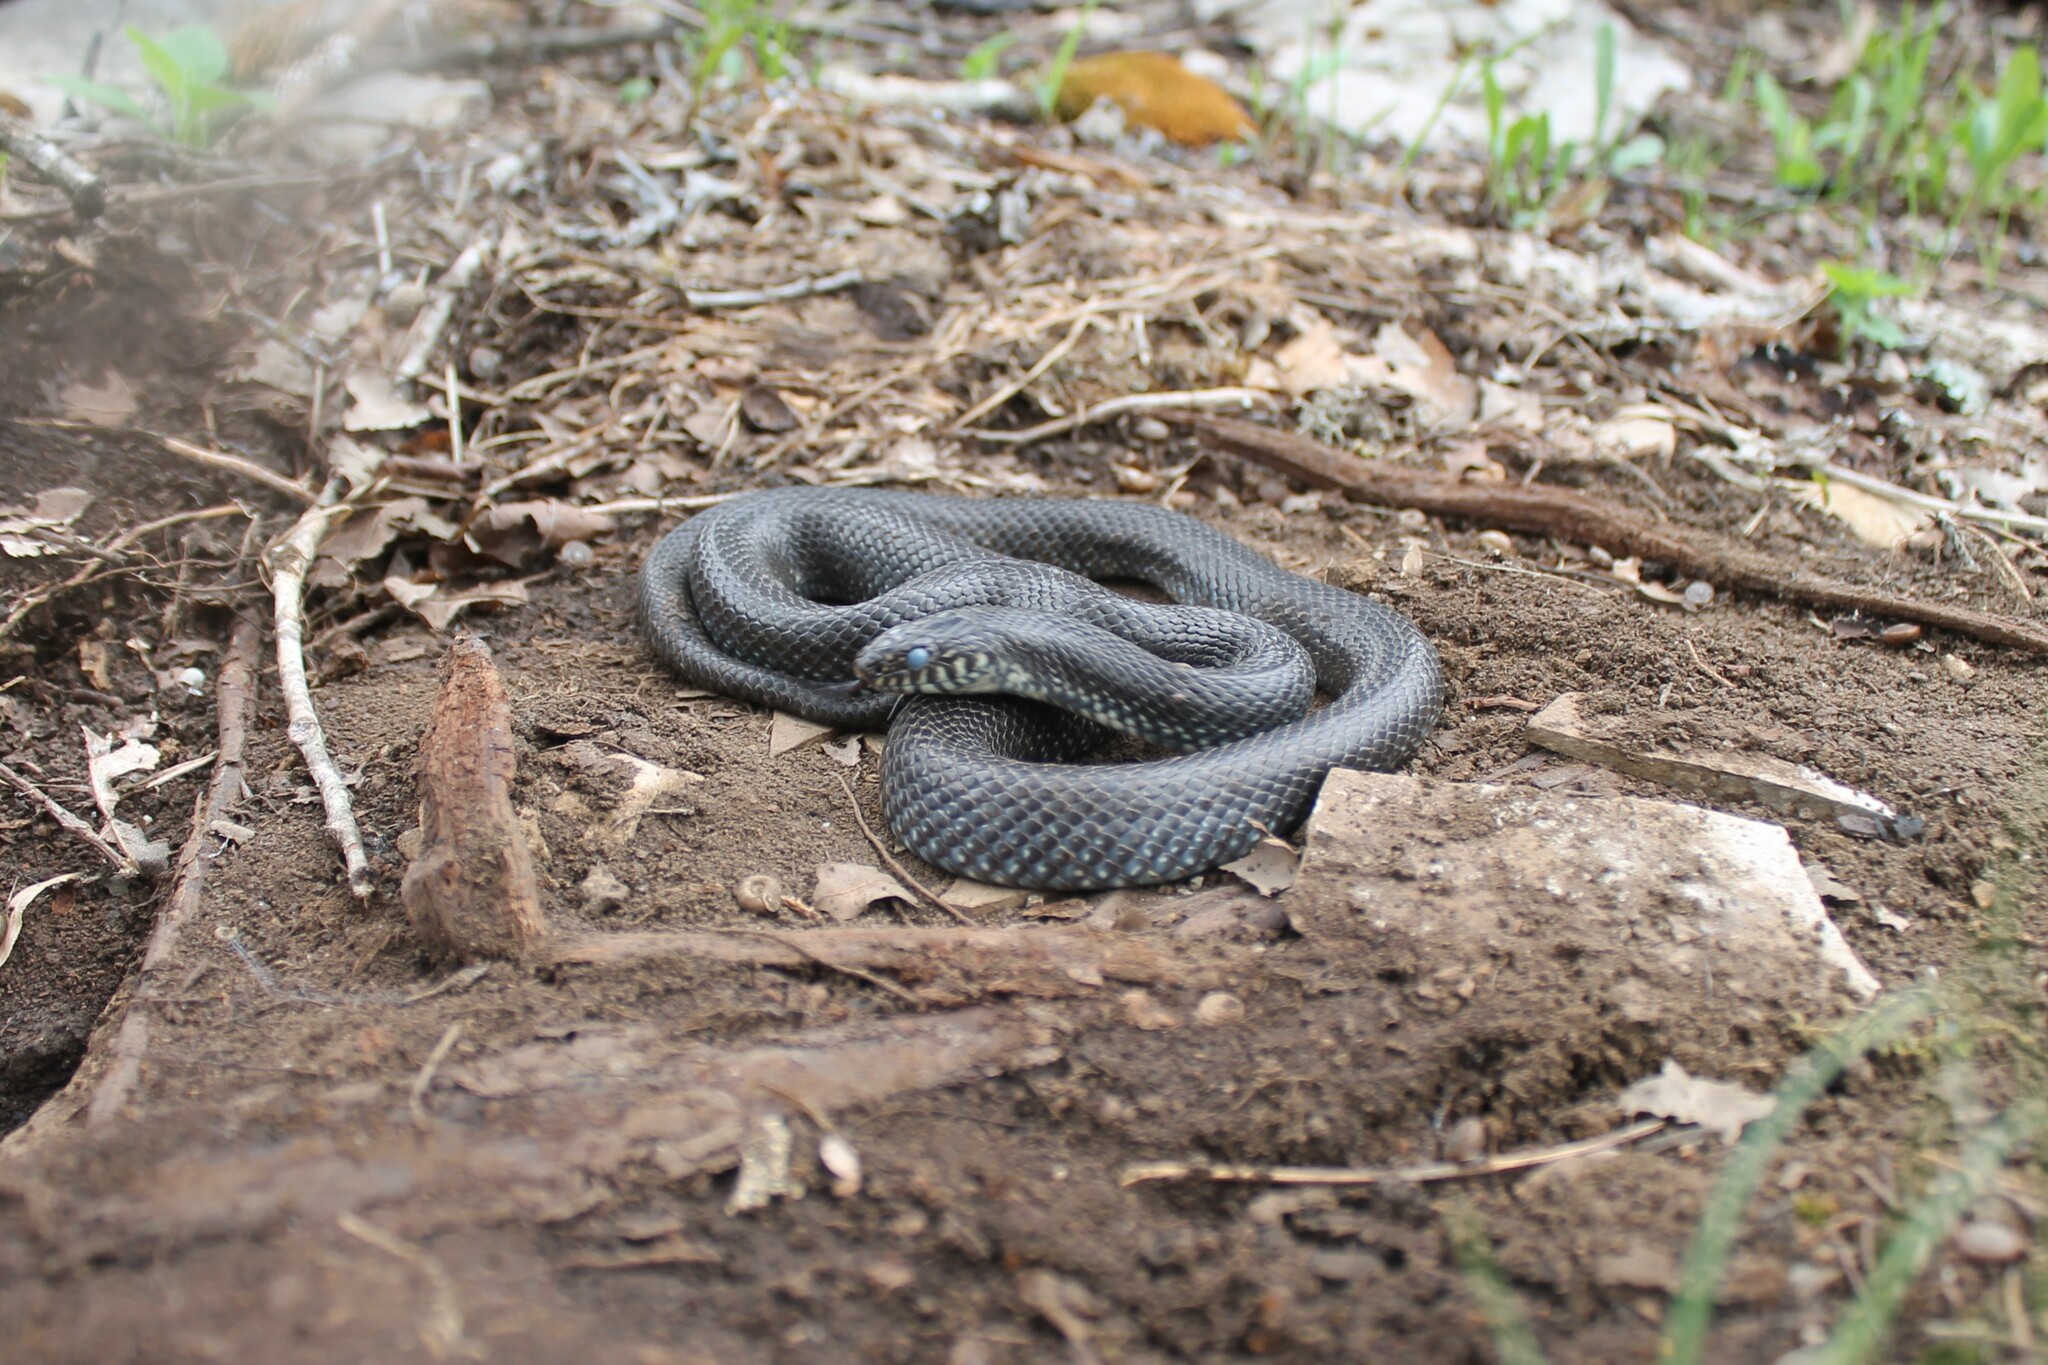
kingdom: Animalia
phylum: Chordata
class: Squamata
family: Colubridae
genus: Lampropeltis
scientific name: Lampropeltis nigra
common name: Black kingsnake
